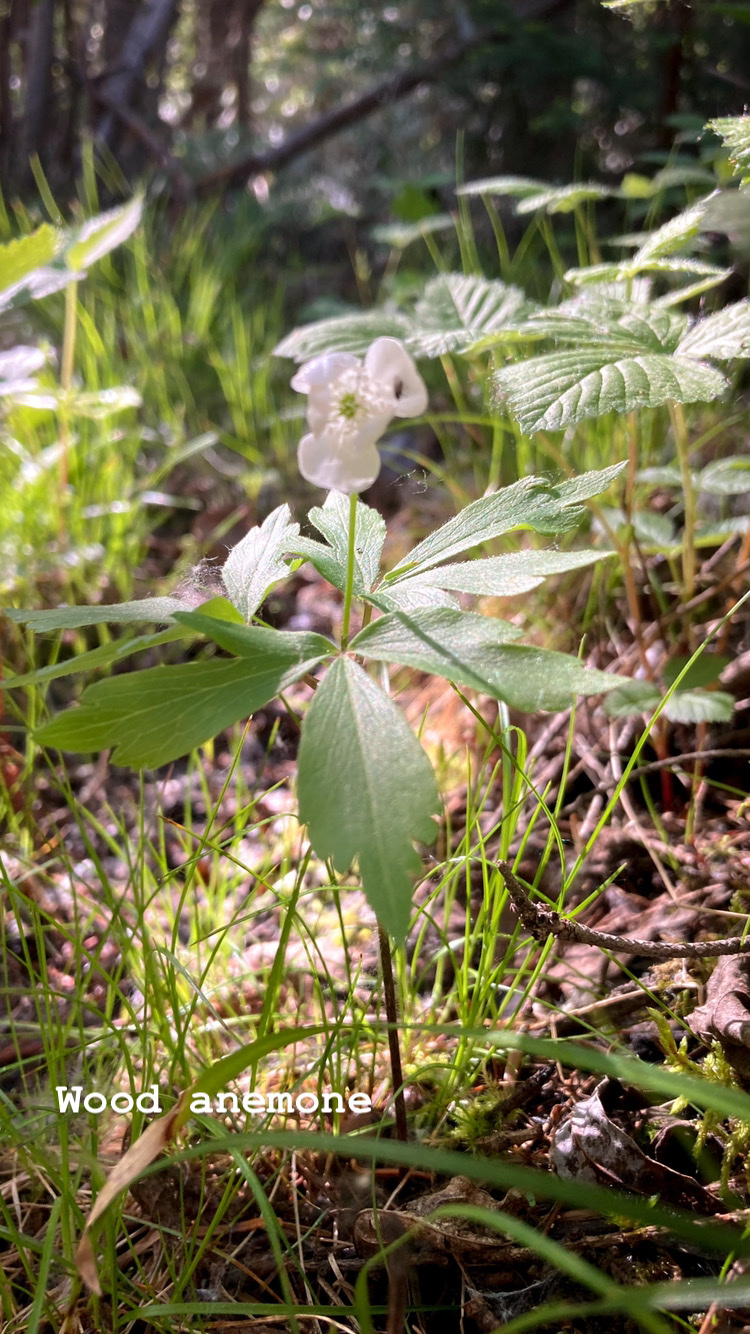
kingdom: Plantae
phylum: Tracheophyta
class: Magnoliopsida
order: Ranunculales
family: Ranunculaceae
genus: Anemone
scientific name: Anemone quinquefolia
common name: Wood anemone
